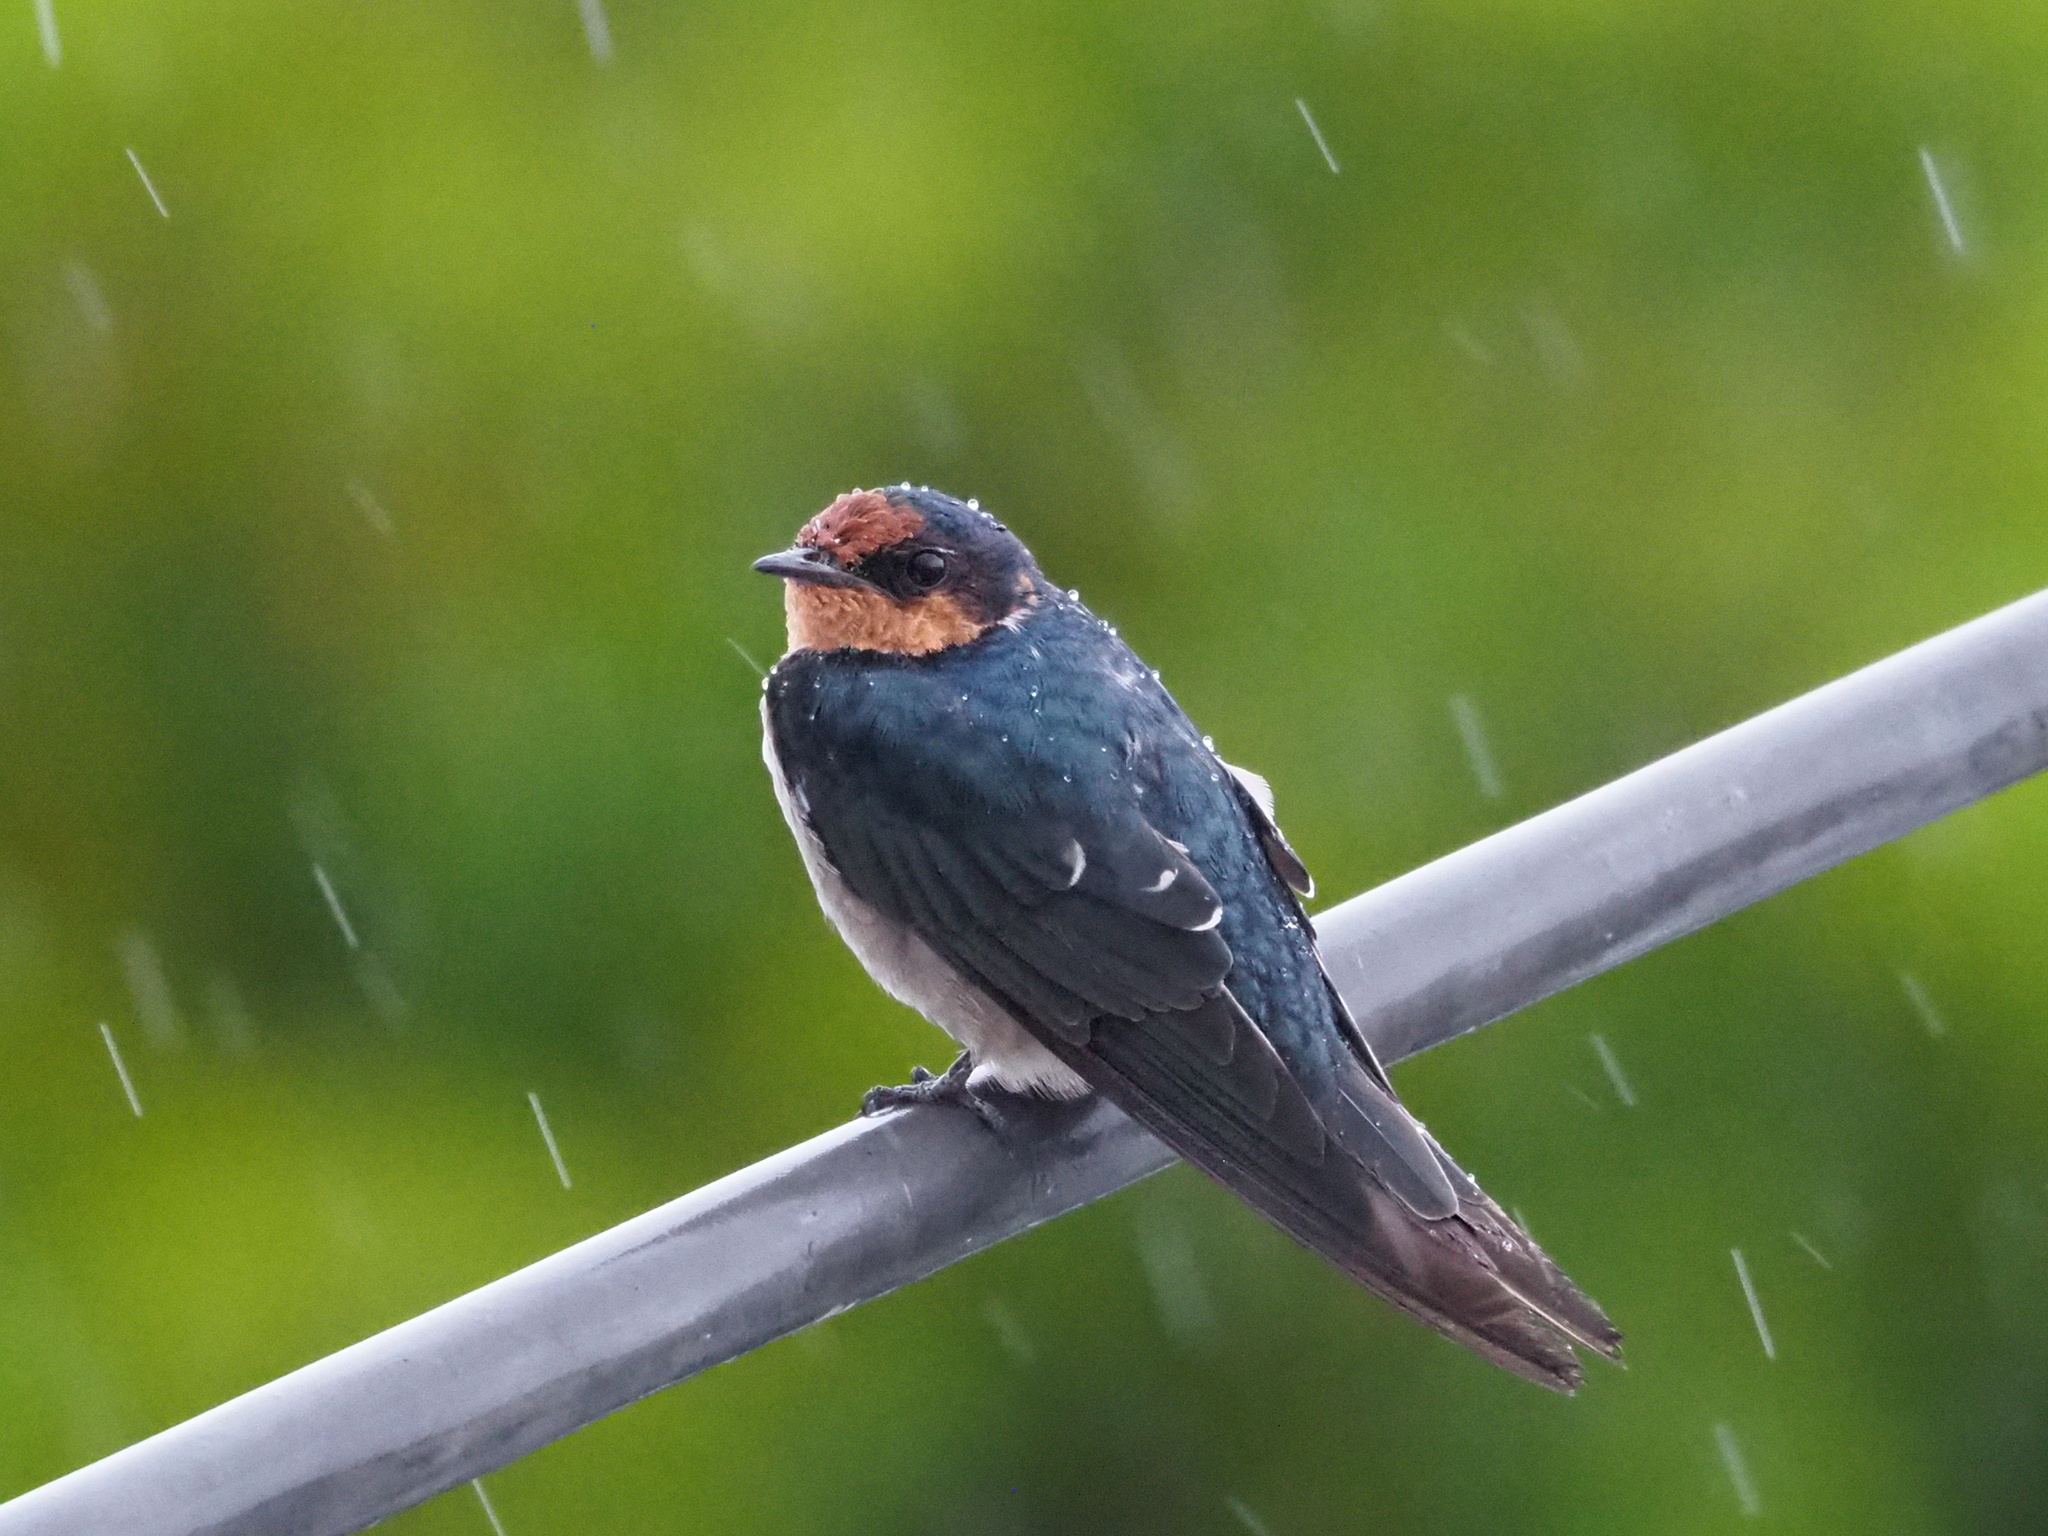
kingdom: Animalia
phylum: Chordata
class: Aves
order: Passeriformes
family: Hirundinidae
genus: Hirundo
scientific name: Hirundo tahitica
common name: Pacific swallow
